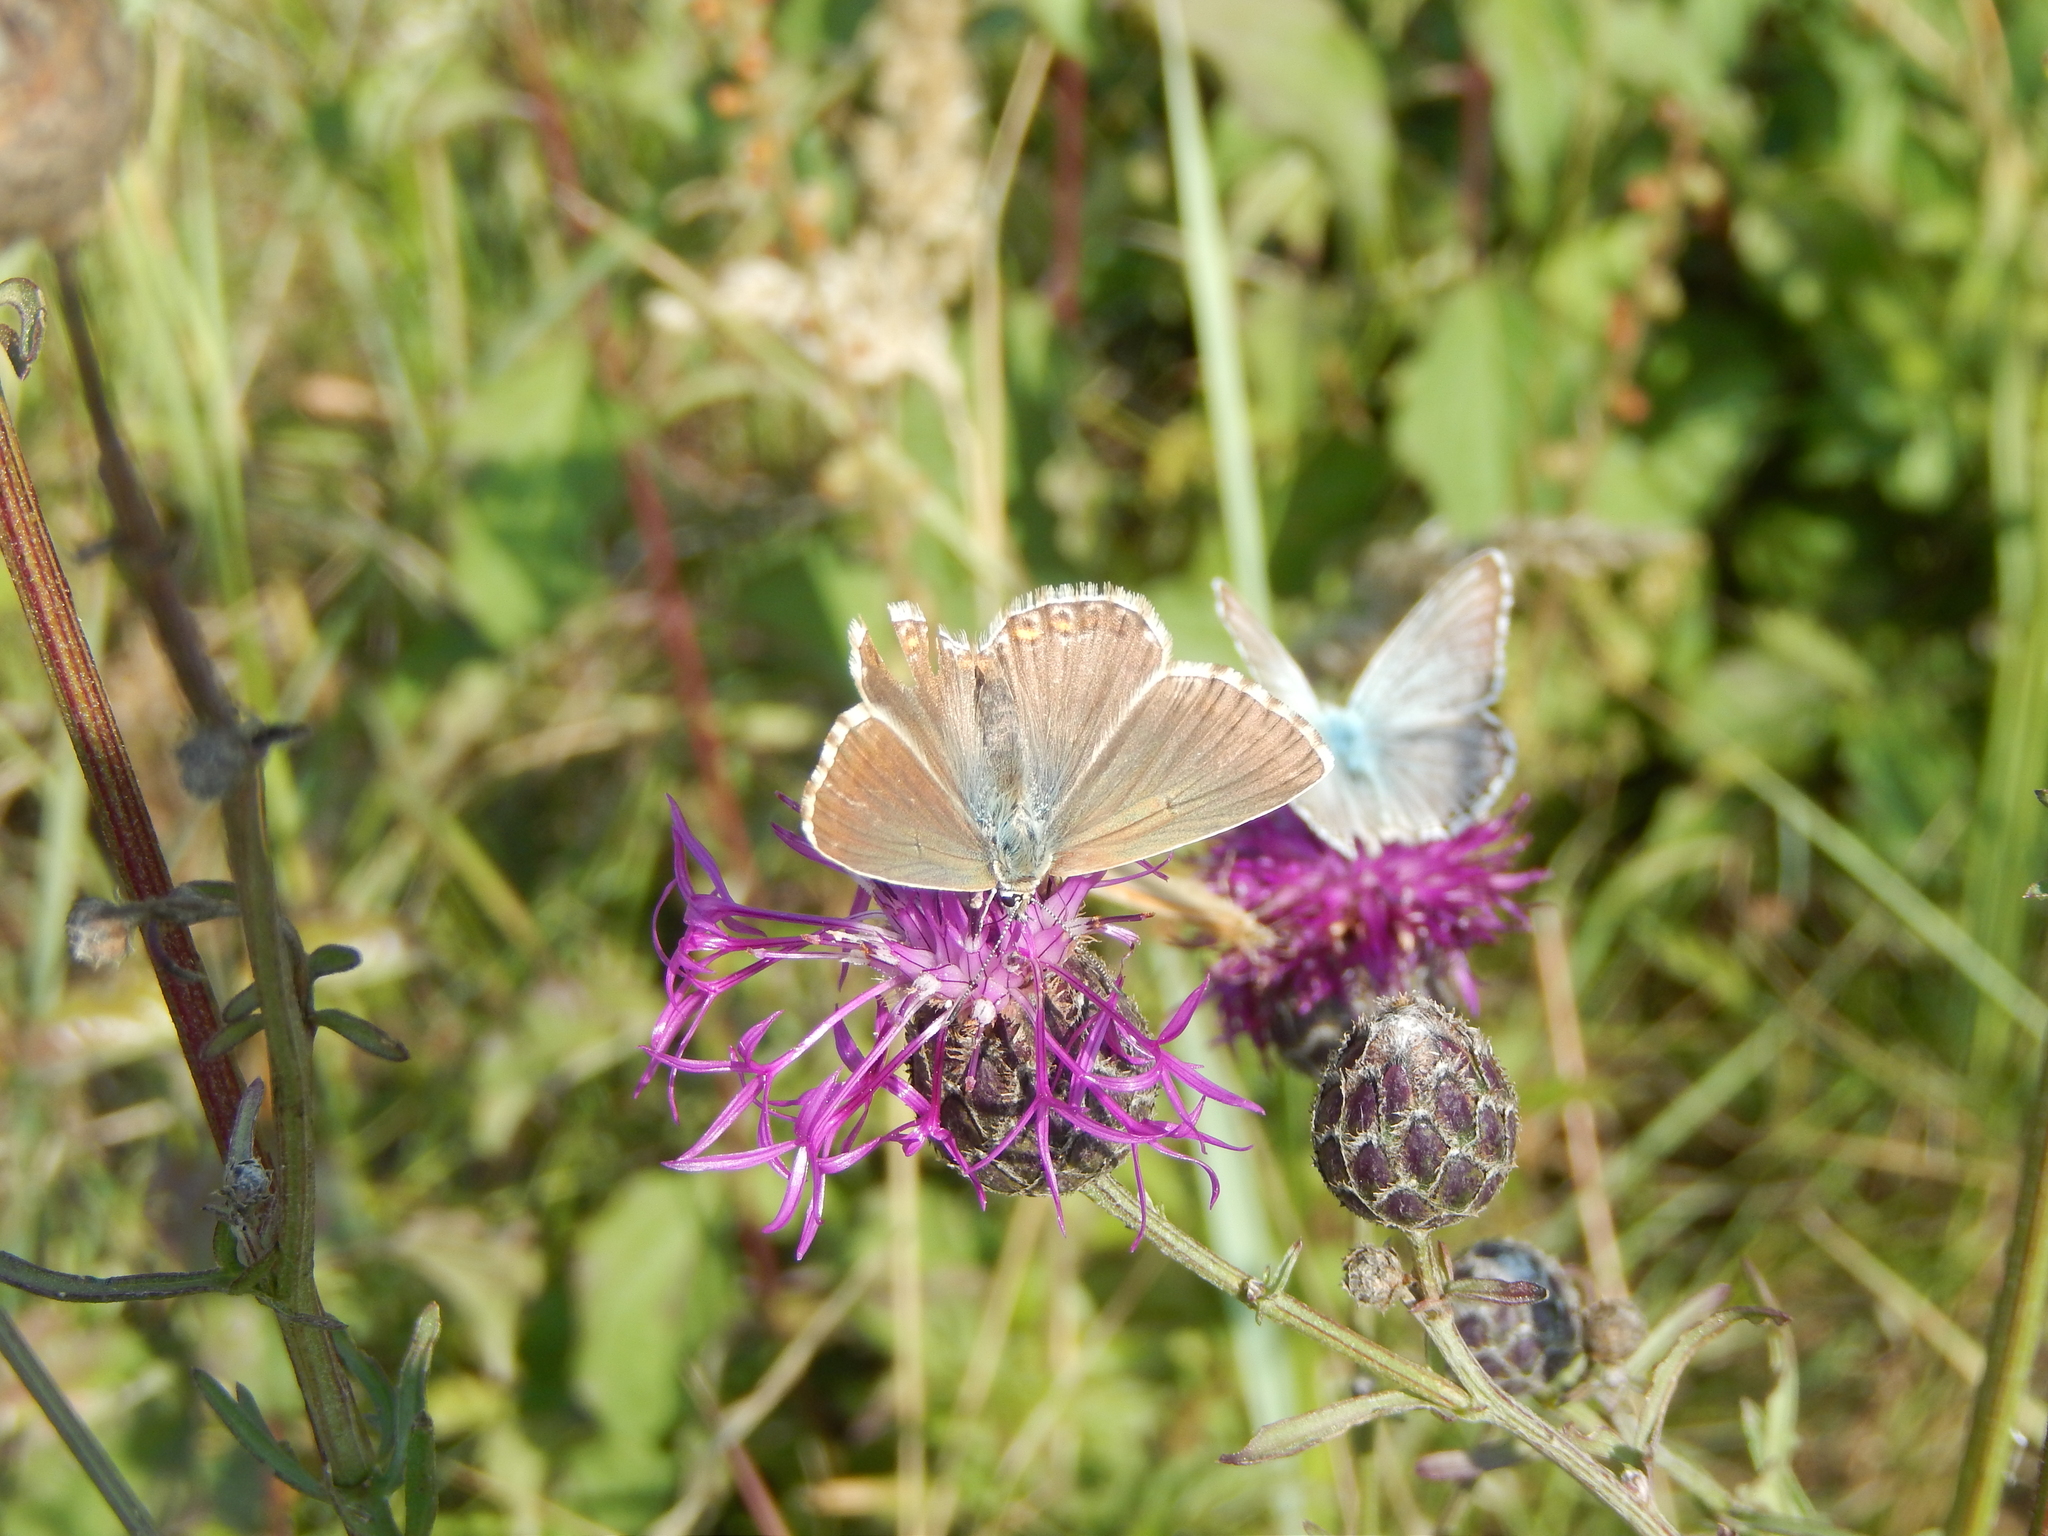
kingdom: Animalia
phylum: Arthropoda
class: Insecta
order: Lepidoptera
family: Lycaenidae
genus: Lysandra
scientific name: Lysandra coridon
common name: Chalkhill blue
